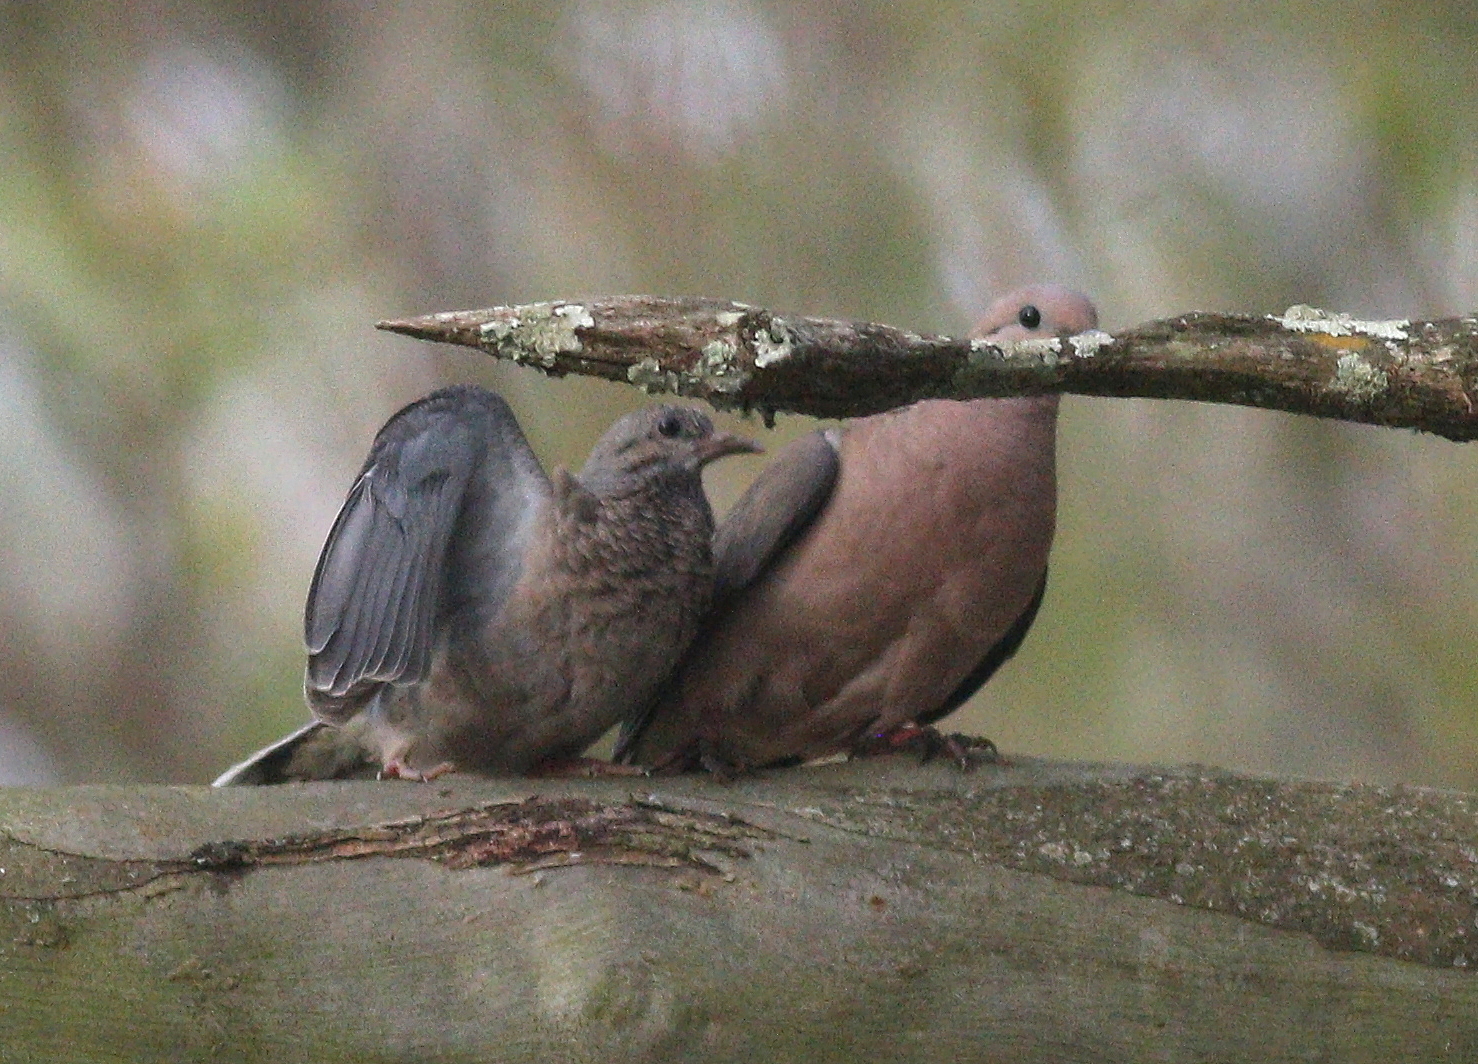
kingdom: Animalia
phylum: Chordata
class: Aves
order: Columbiformes
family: Columbidae
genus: Zenaida
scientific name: Zenaida auriculata
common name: Eared dove
